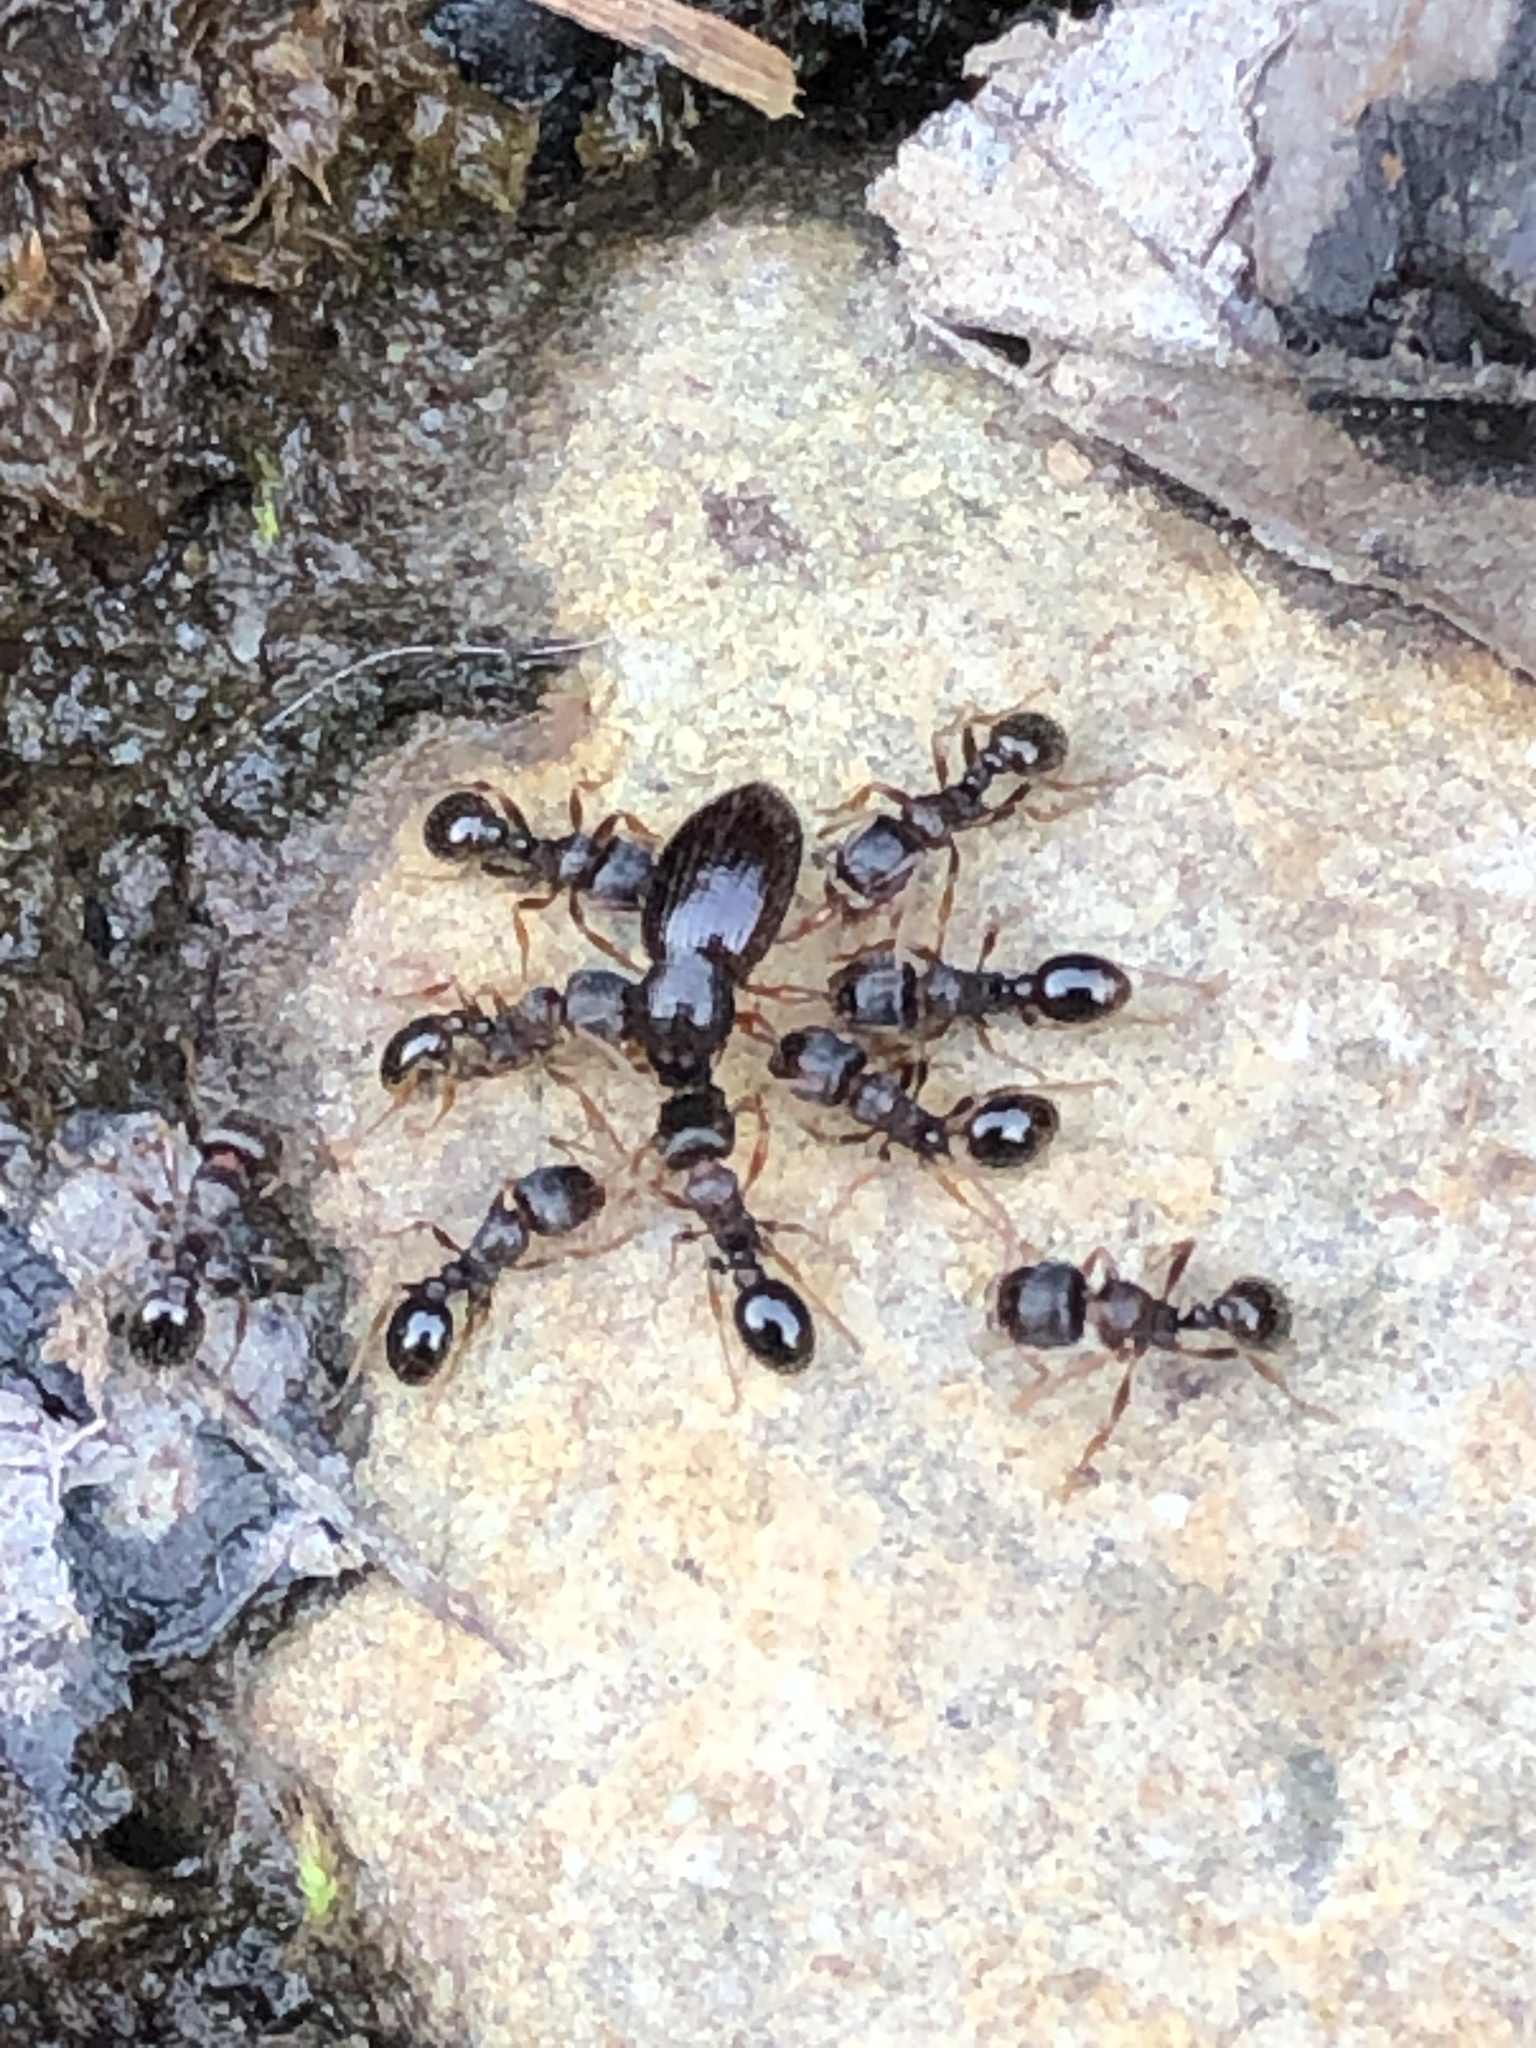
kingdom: Animalia
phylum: Arthropoda
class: Insecta
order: Coleoptera
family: Curculionidae
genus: Exomias
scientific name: Exomias pellucidus
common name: Hairy spider weevil
